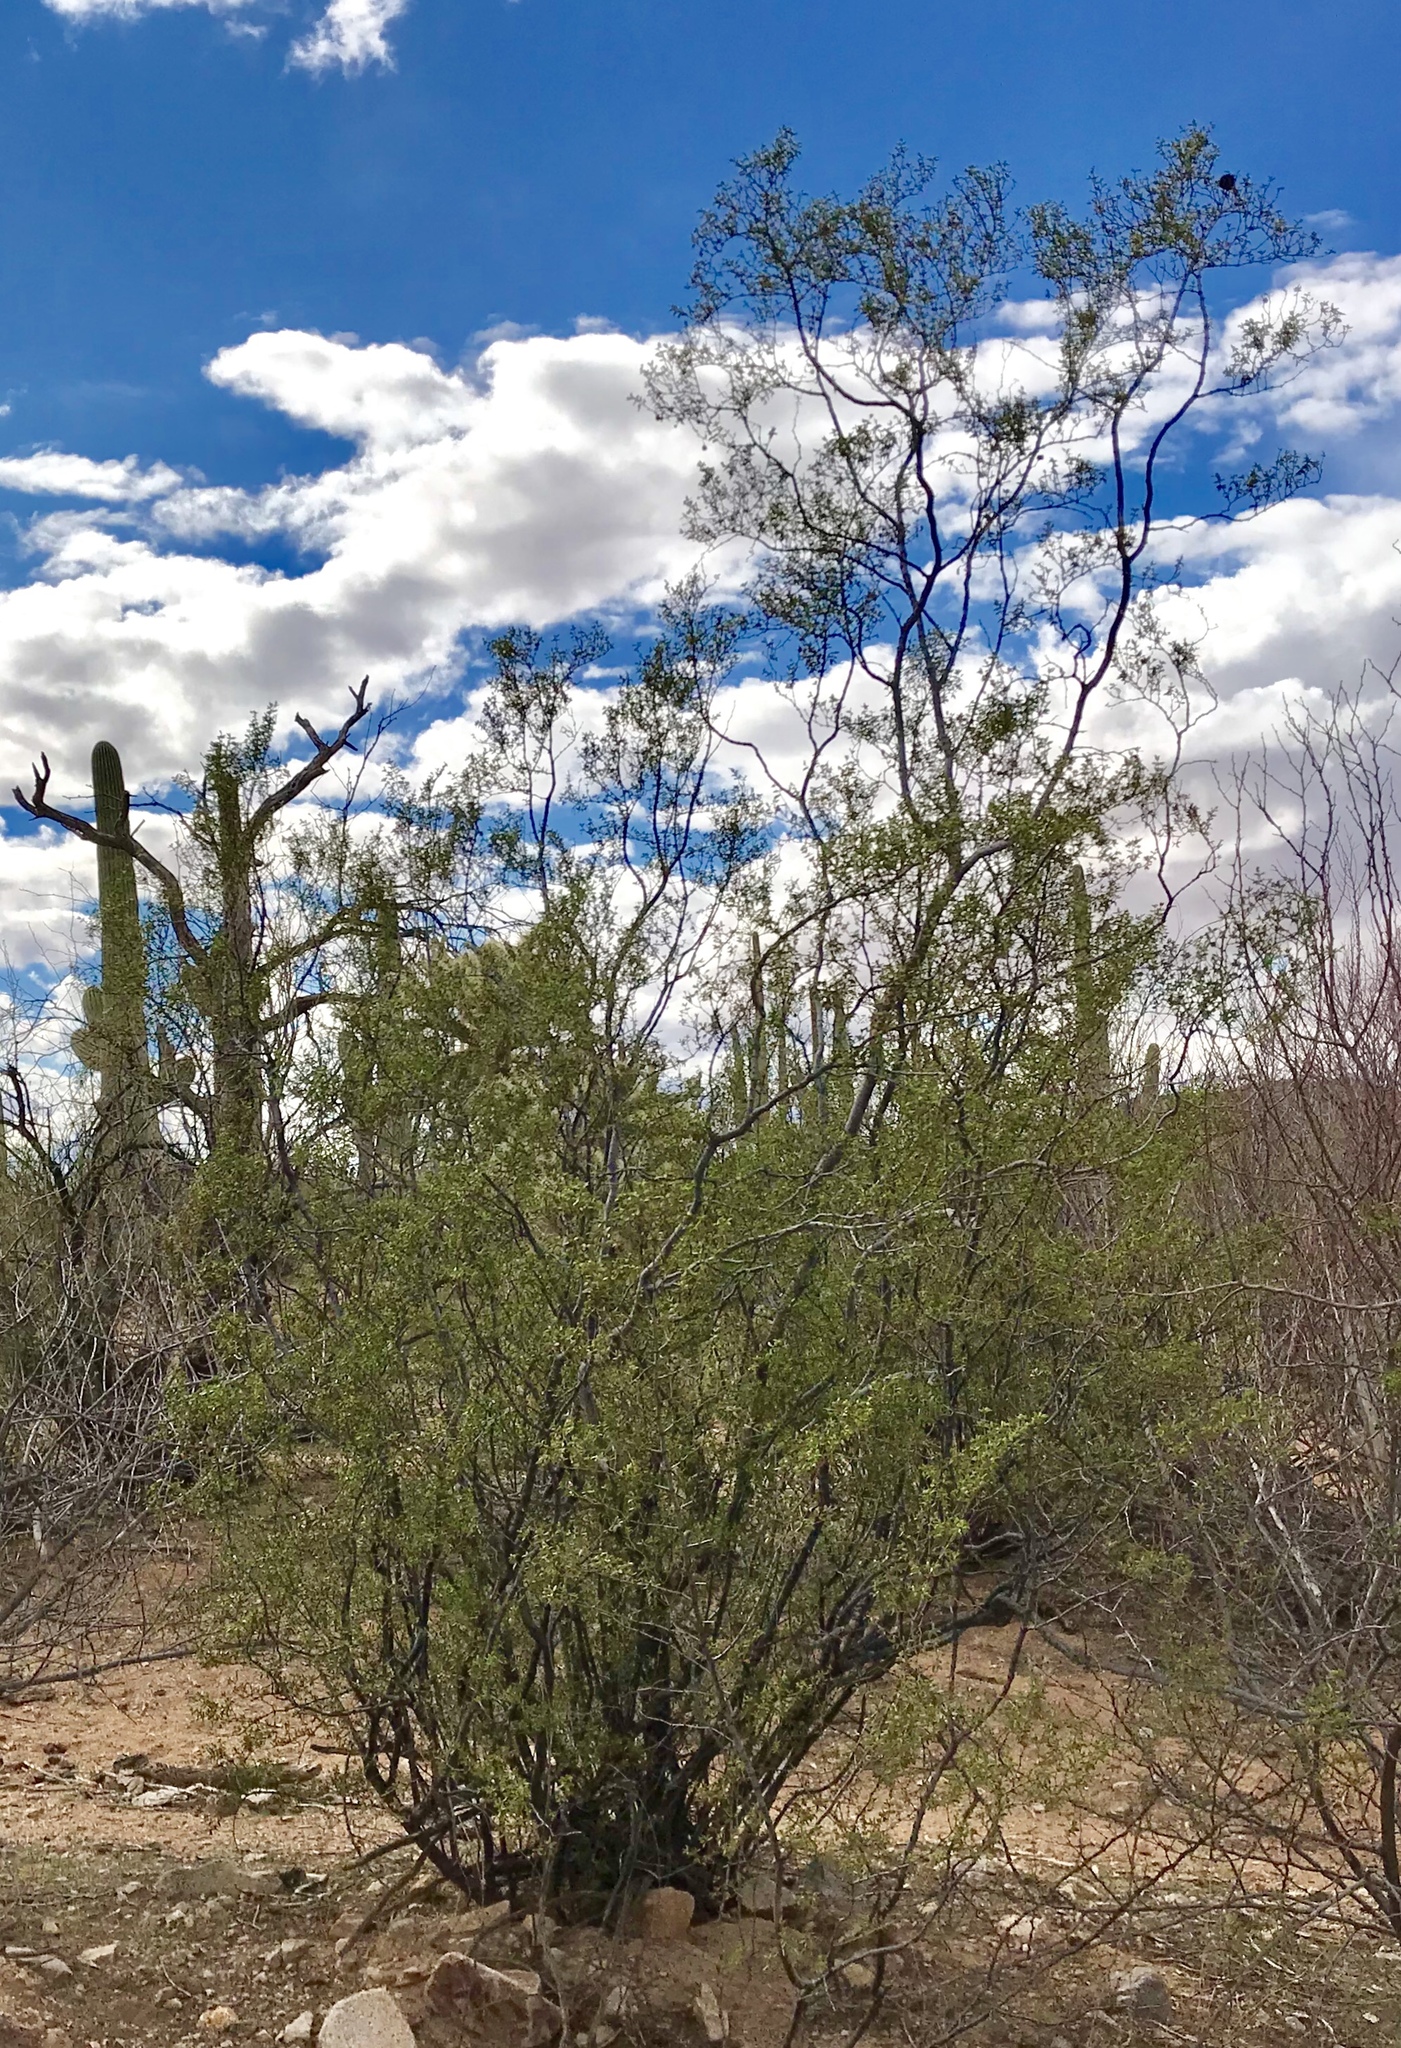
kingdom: Plantae
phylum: Tracheophyta
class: Magnoliopsida
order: Zygophyllales
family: Zygophyllaceae
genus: Larrea
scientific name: Larrea tridentata
